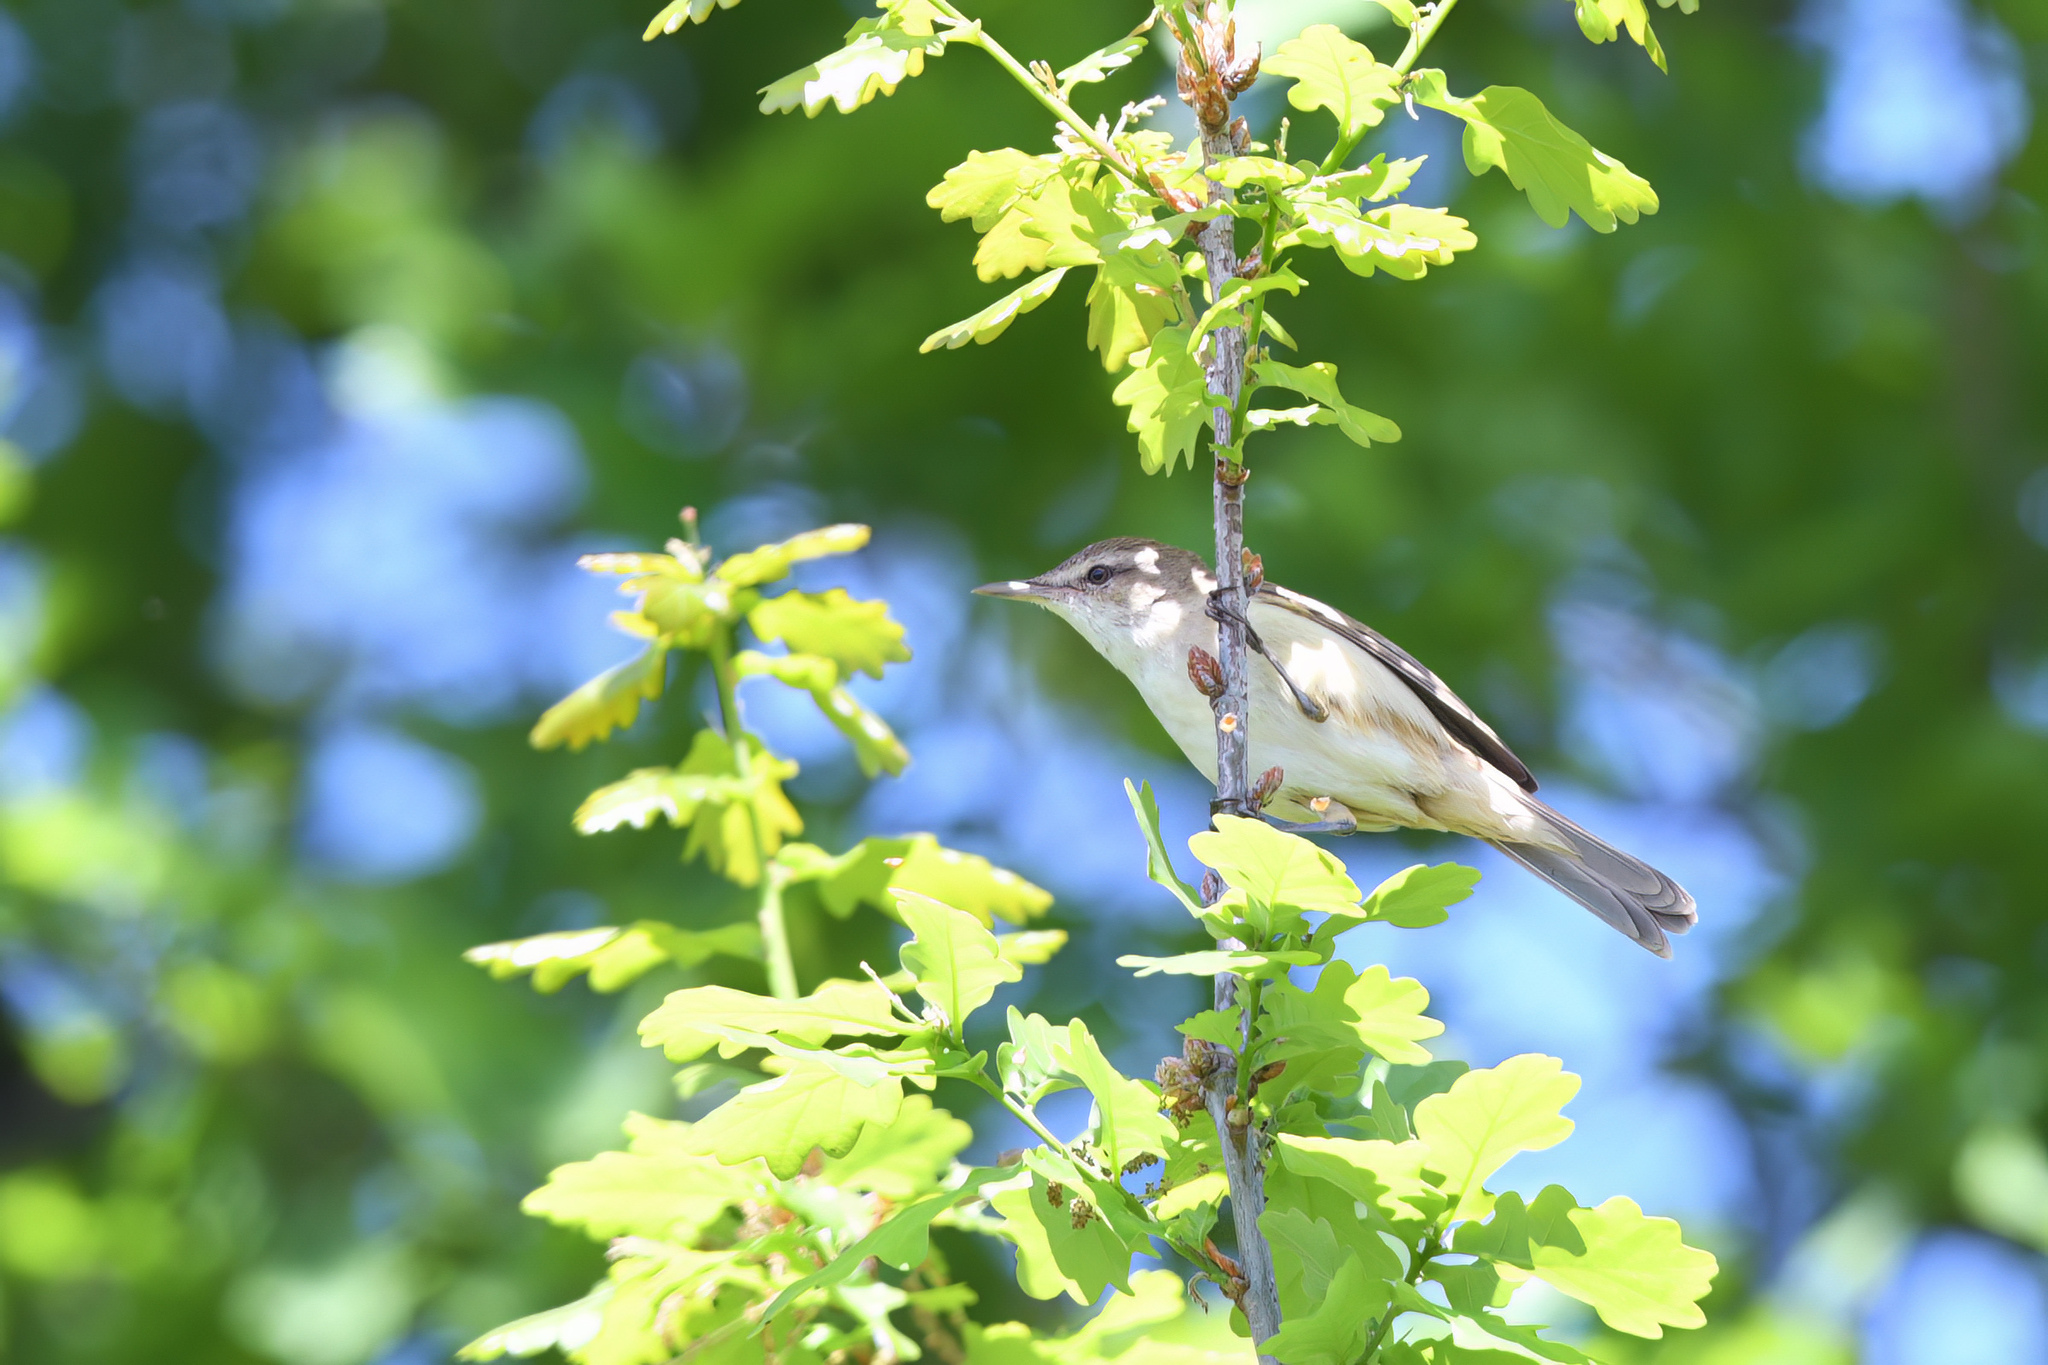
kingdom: Animalia
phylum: Chordata
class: Aves
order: Passeriformes
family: Acrocephalidae
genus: Acrocephalus
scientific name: Acrocephalus australis
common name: Australian reed warbler
